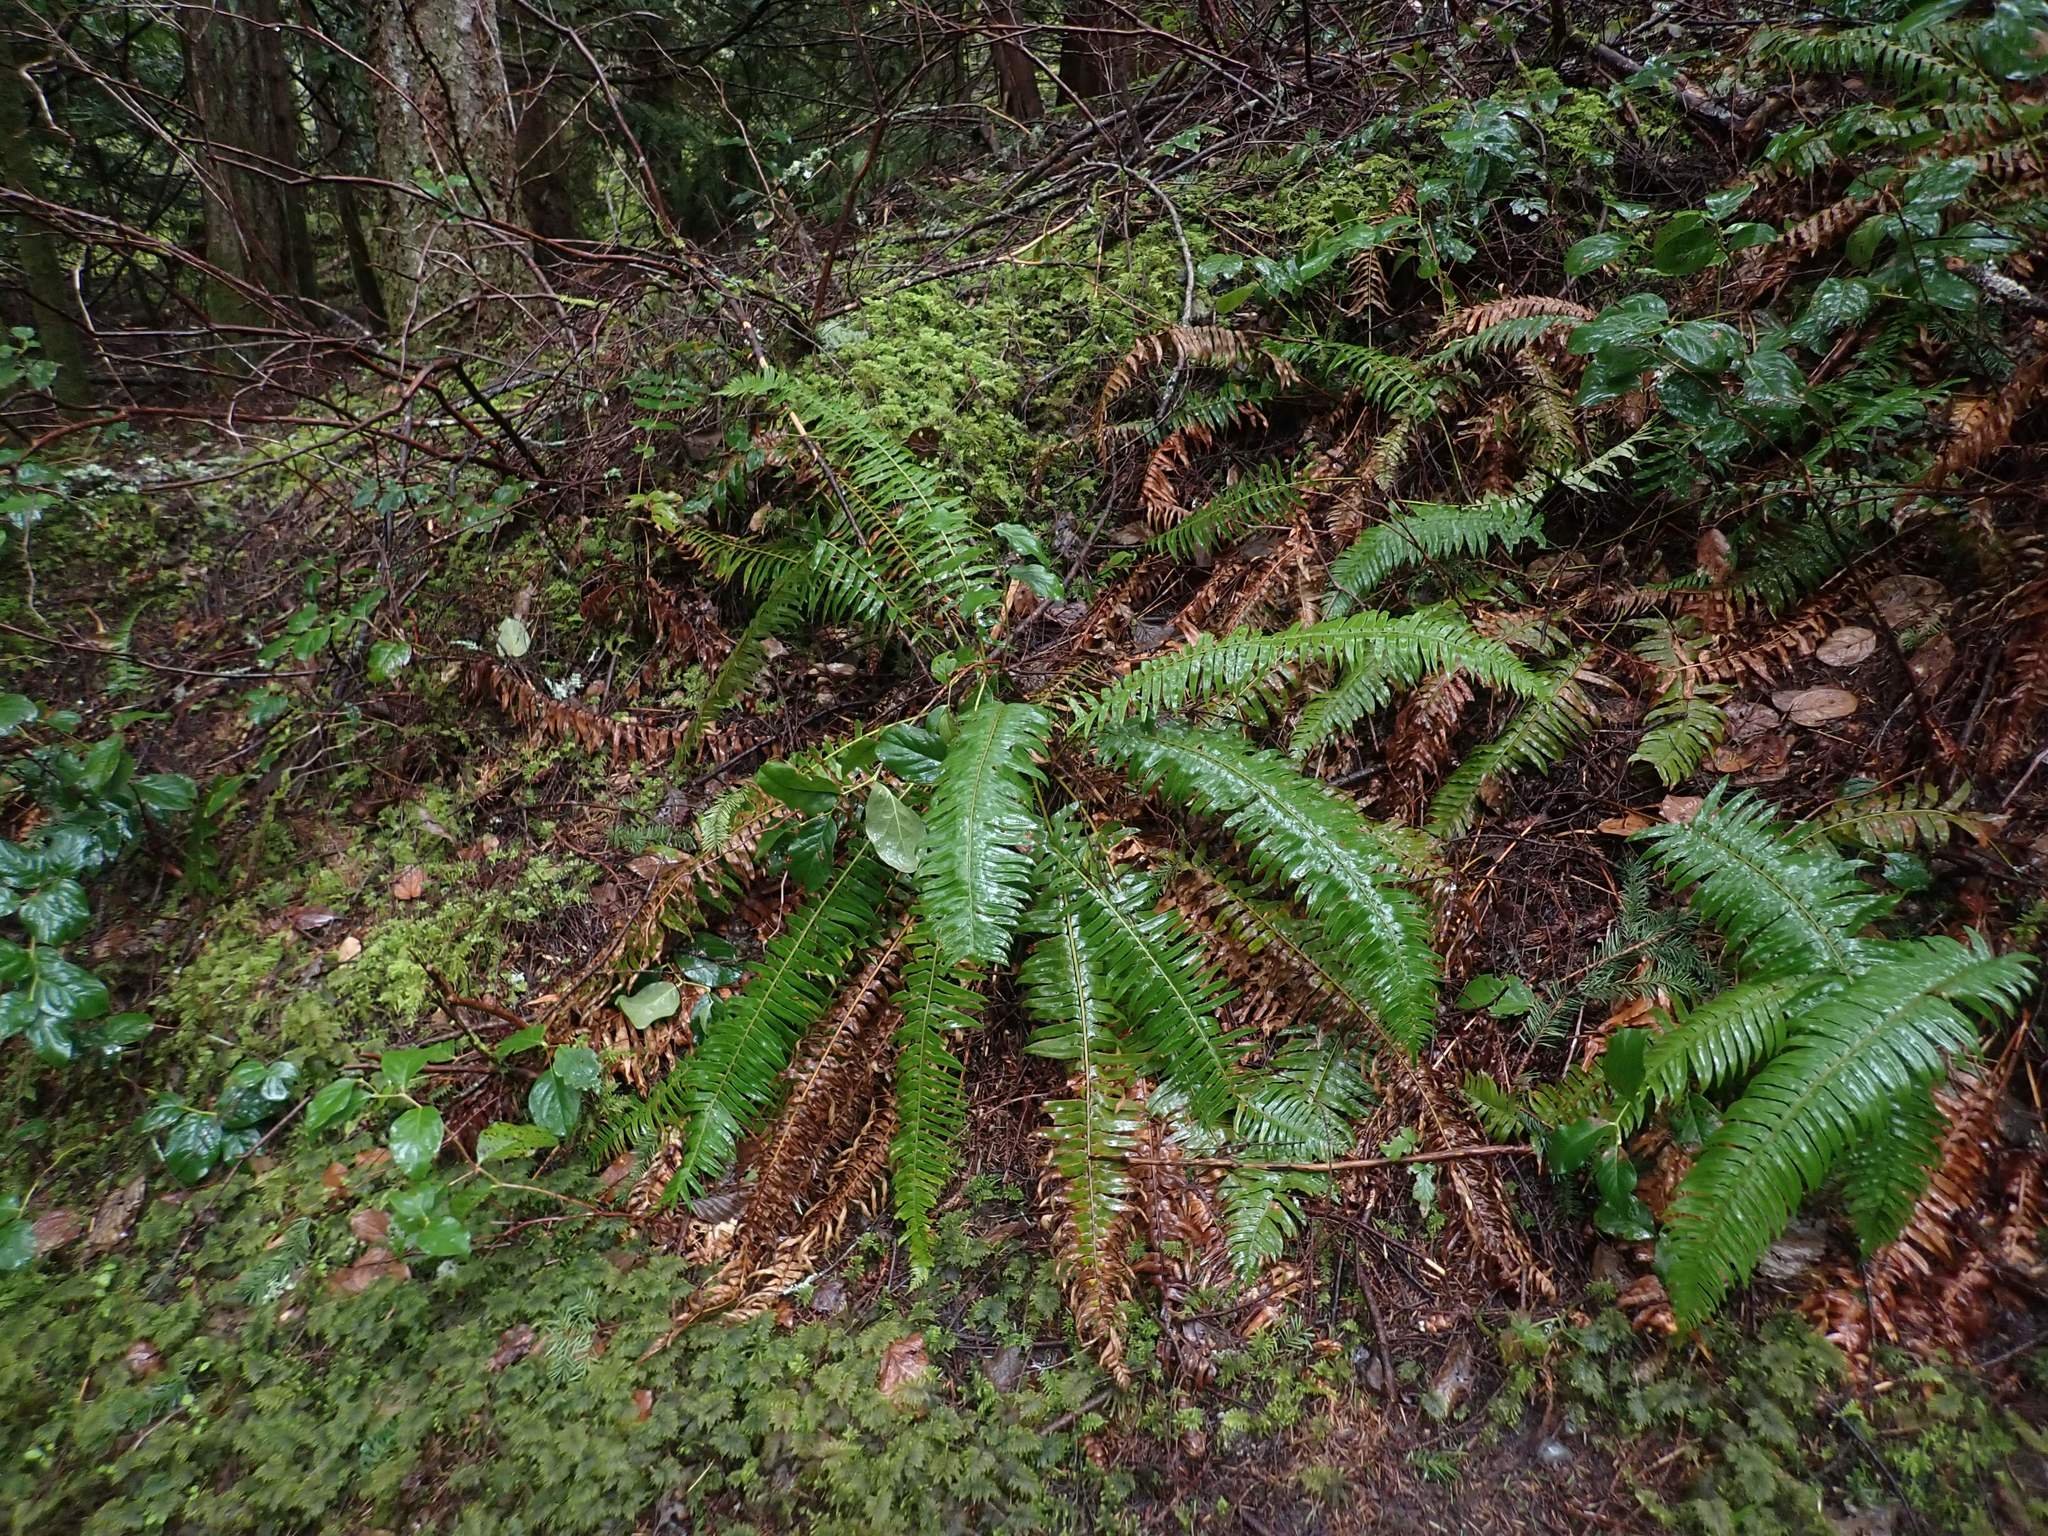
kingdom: Plantae
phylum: Tracheophyta
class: Polypodiopsida
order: Polypodiales
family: Dryopteridaceae
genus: Polystichum
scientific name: Polystichum munitum
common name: Western sword-fern
